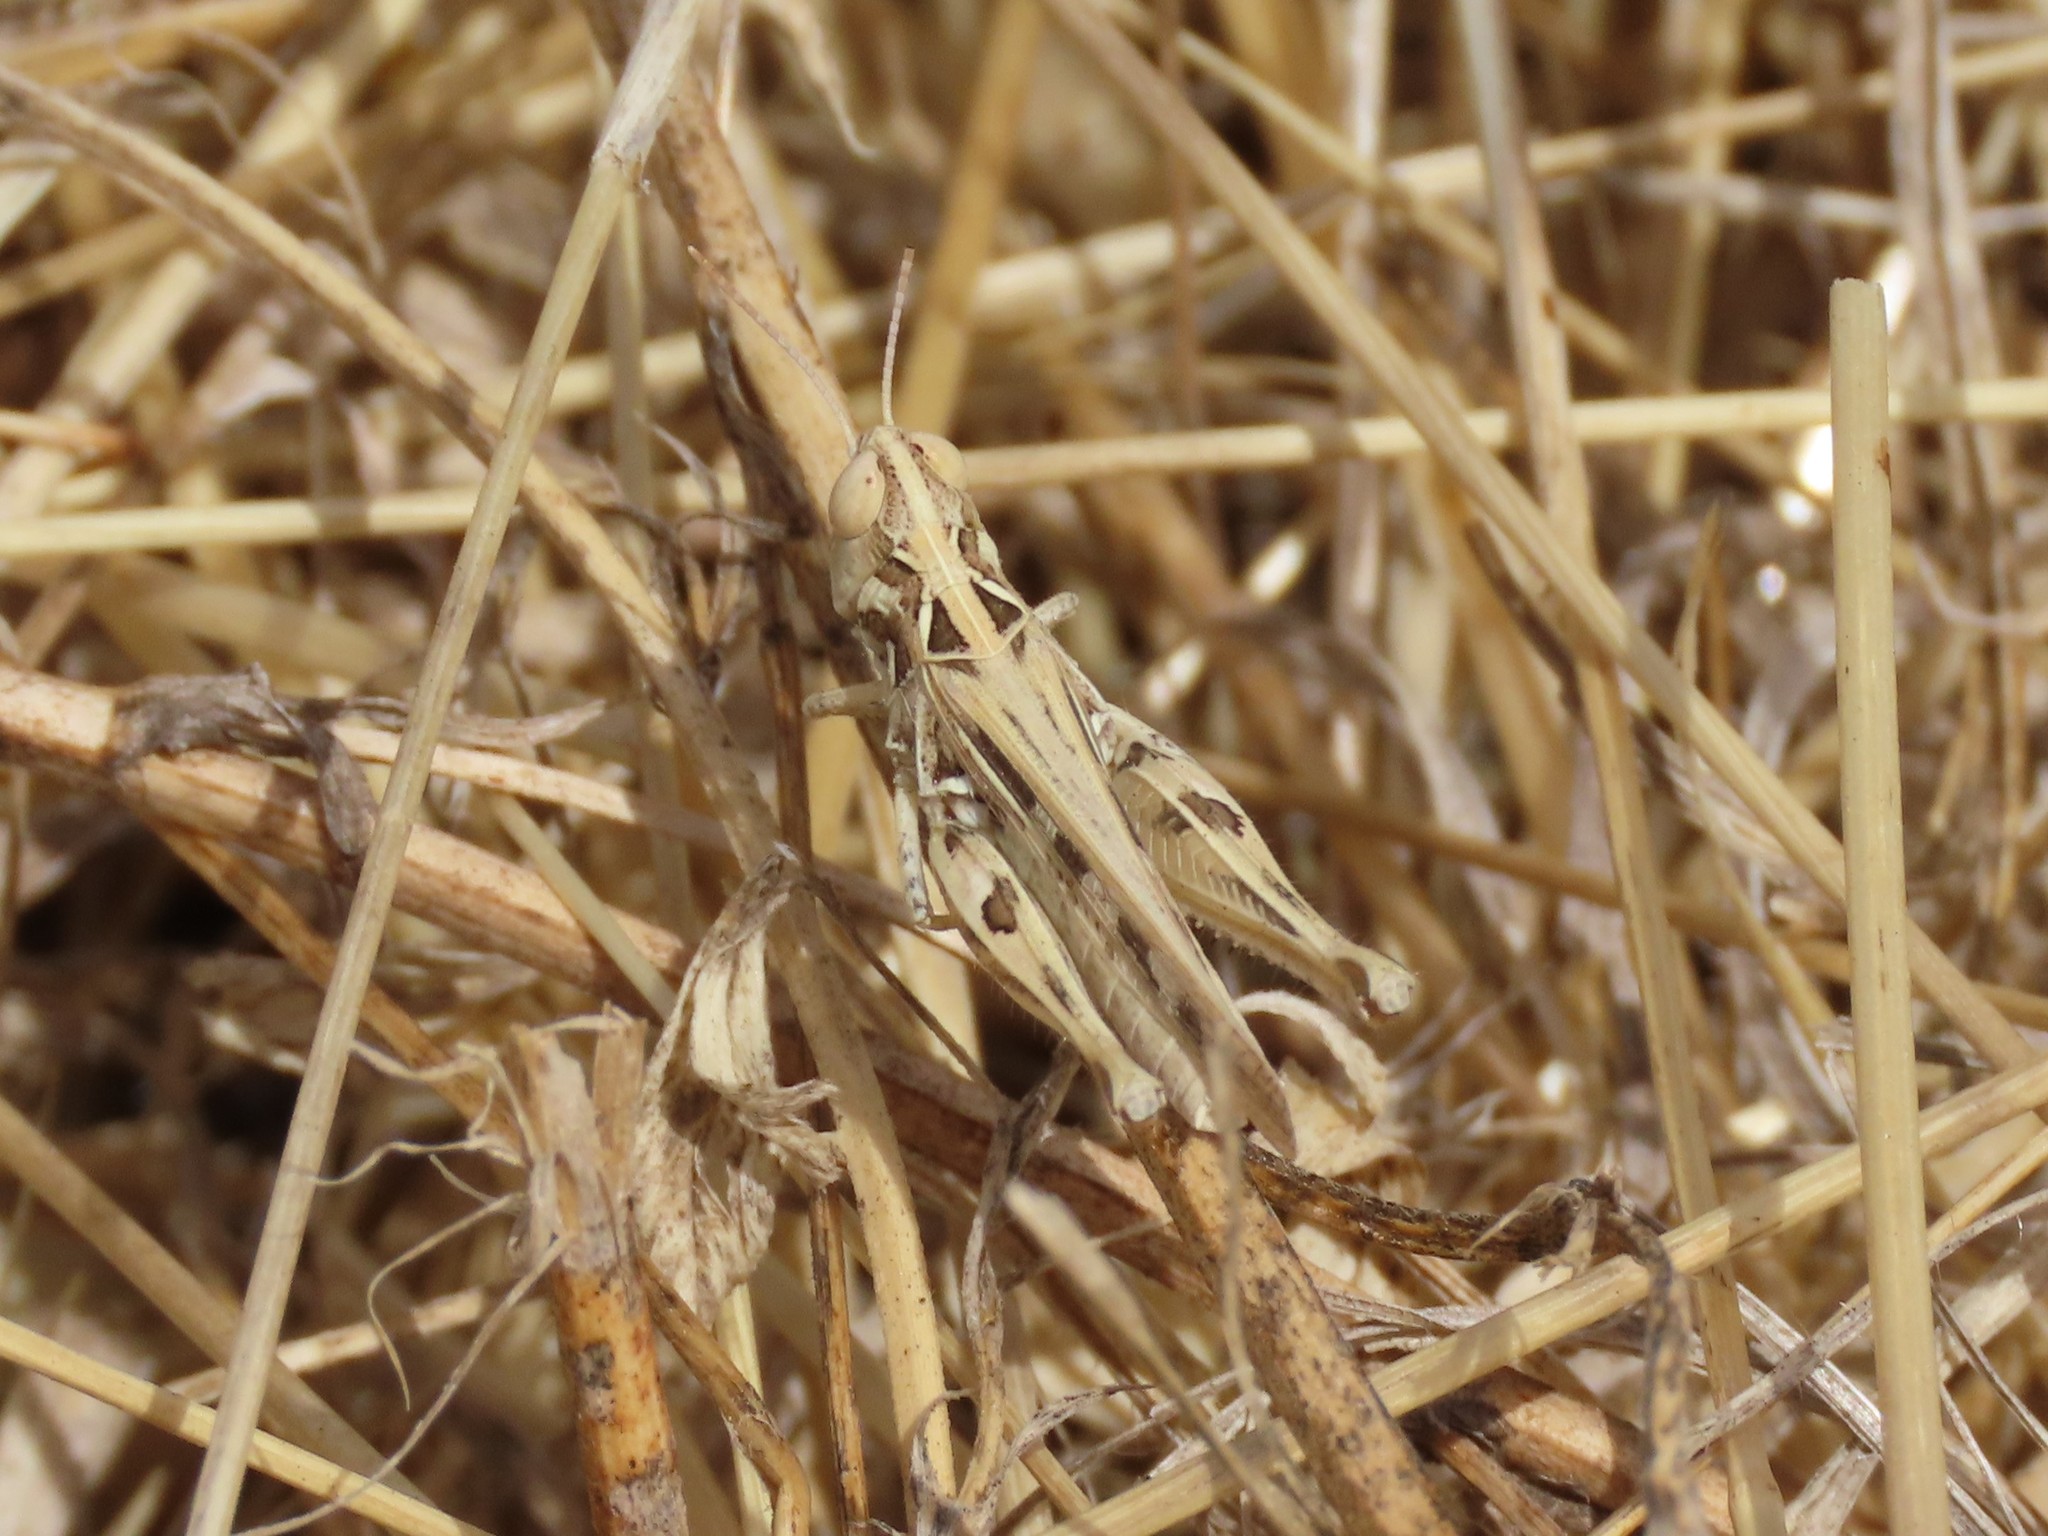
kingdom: Animalia
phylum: Arthropoda
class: Insecta
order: Orthoptera
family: Acrididae
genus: Dociostaurus
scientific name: Dociostaurus jagoi
